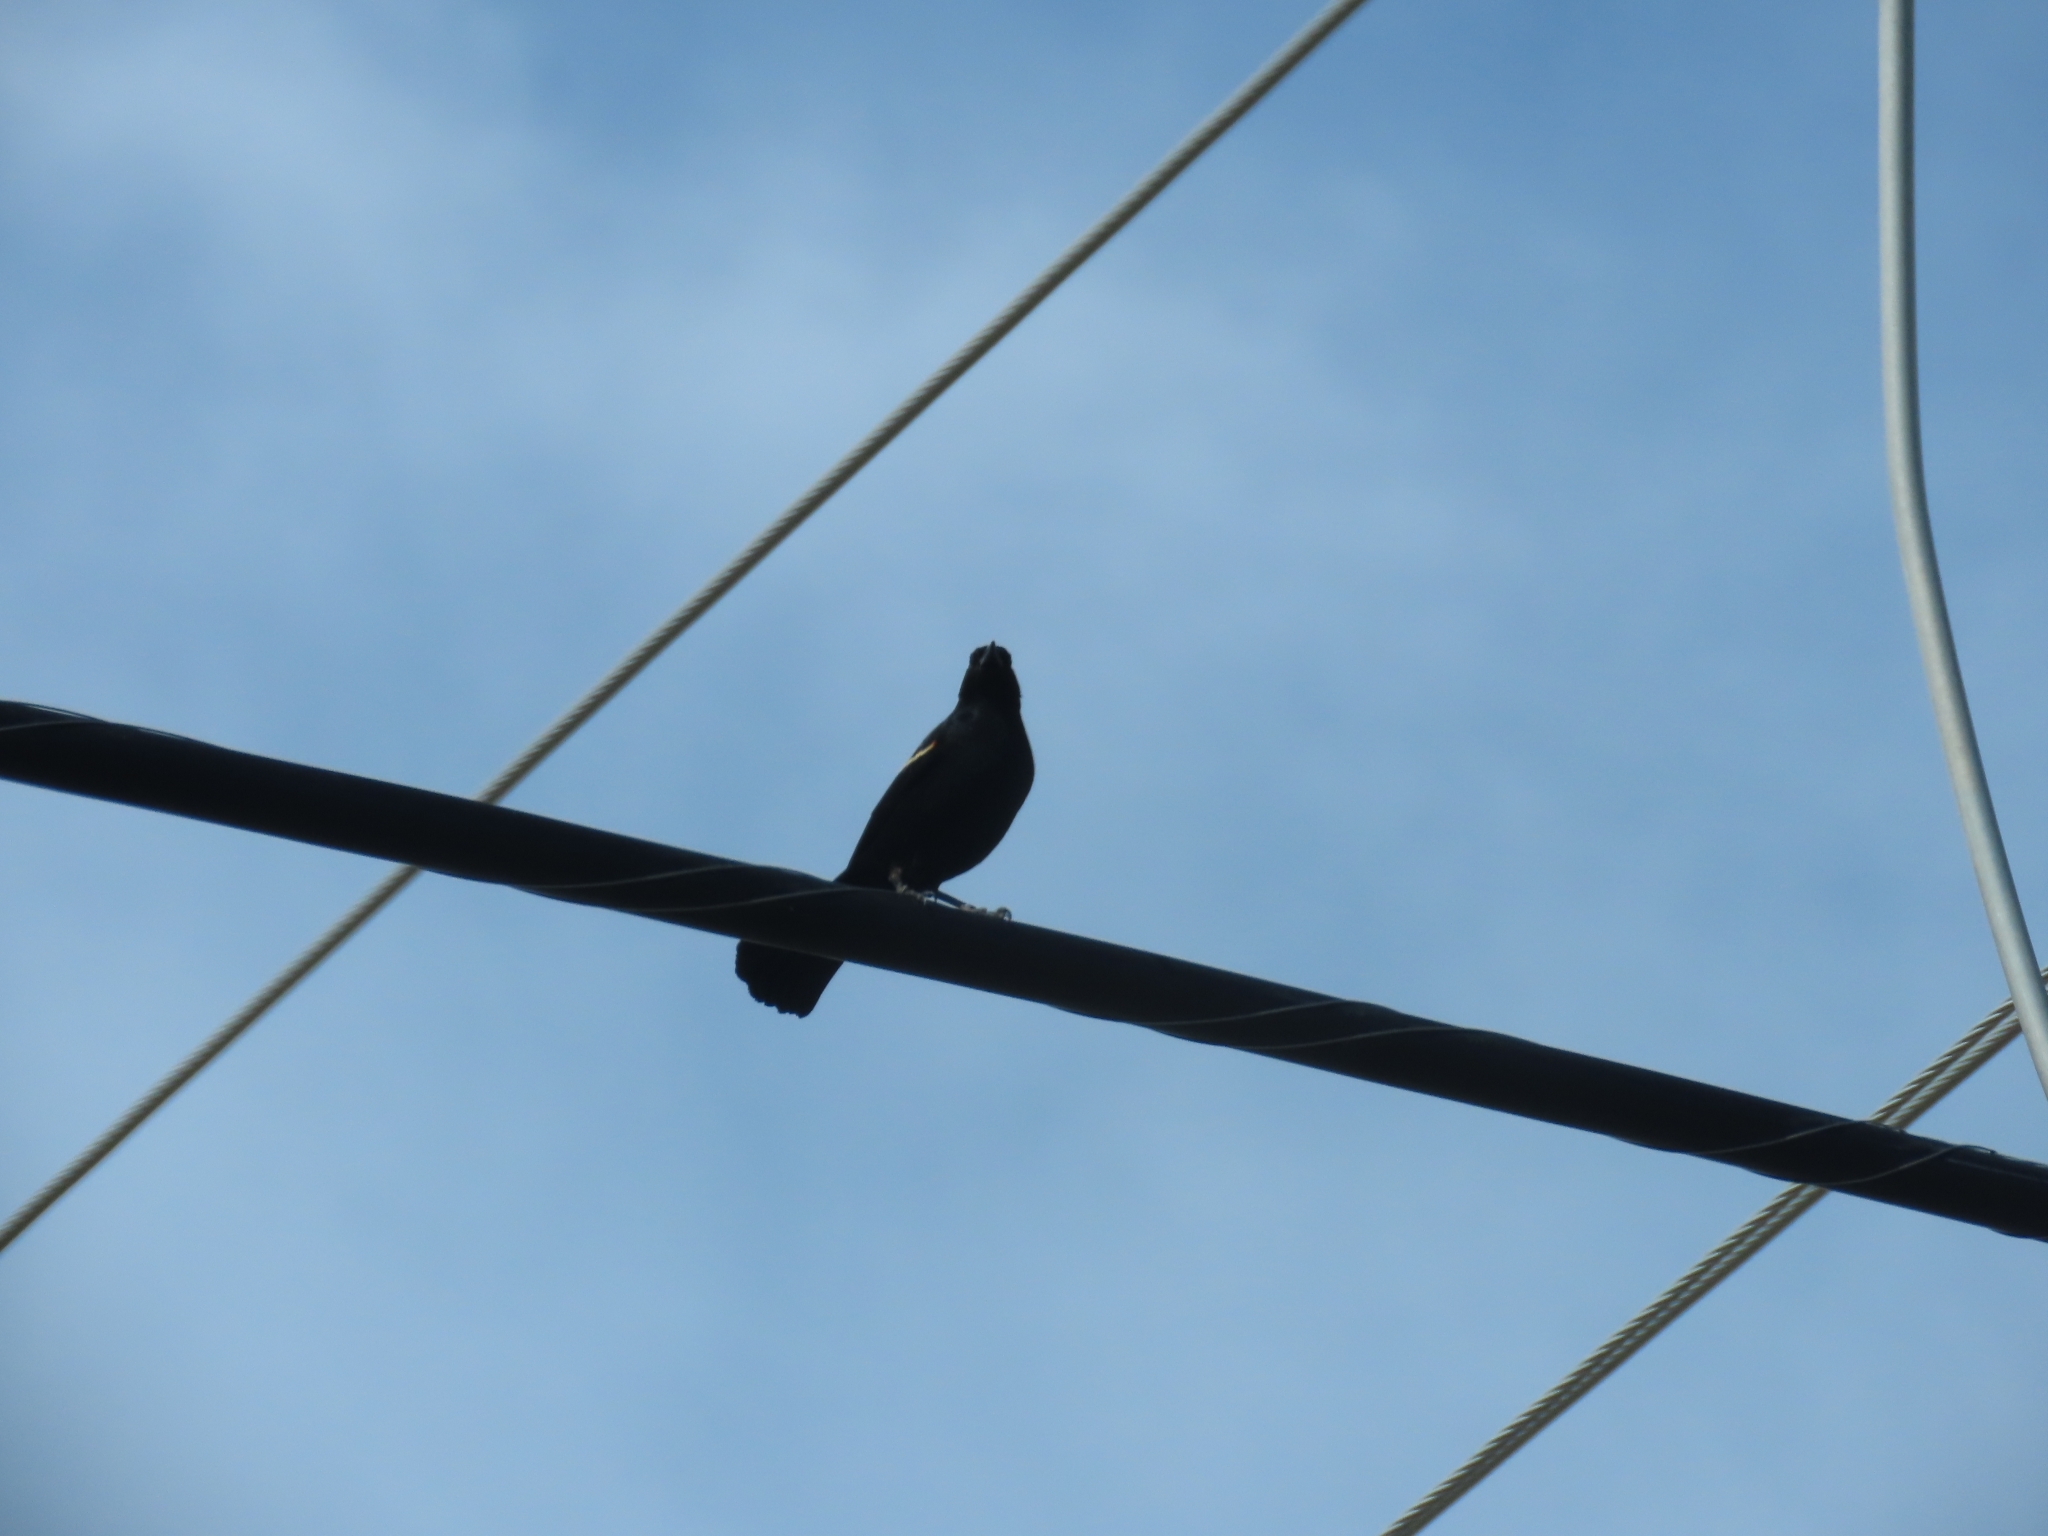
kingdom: Animalia
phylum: Chordata
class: Aves
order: Passeriformes
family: Icteridae
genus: Agelaius
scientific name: Agelaius phoeniceus
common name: Red-winged blackbird
